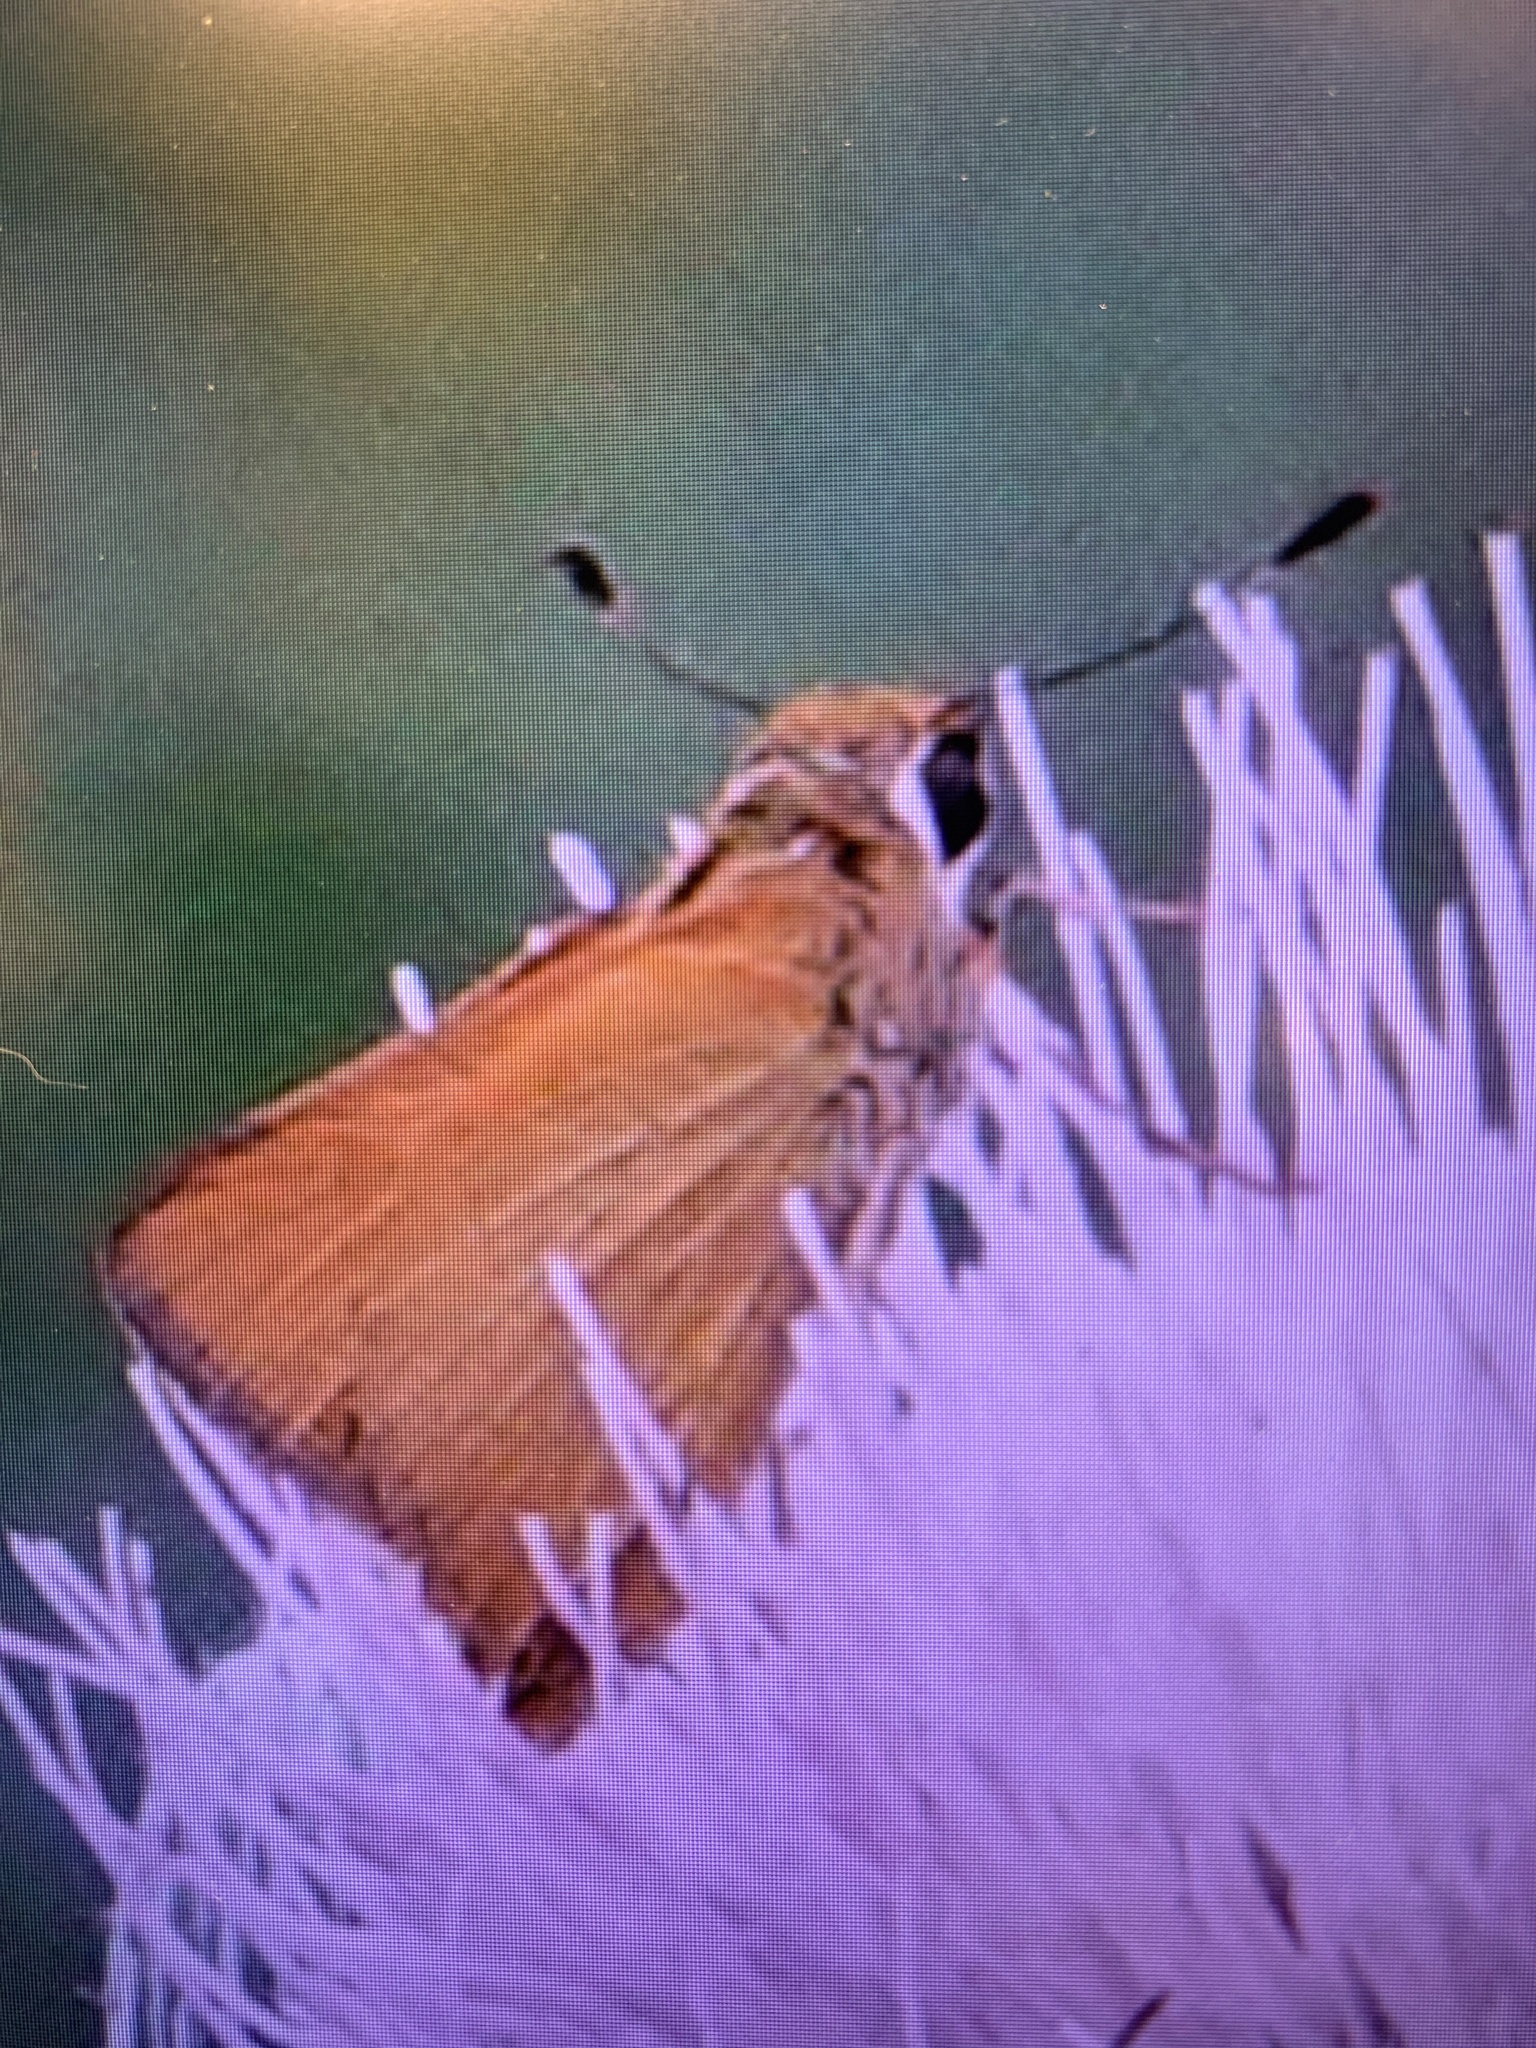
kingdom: Animalia
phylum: Arthropoda
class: Insecta
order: Lepidoptera
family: Hesperiidae
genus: Atrytone
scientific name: Atrytone delaware
